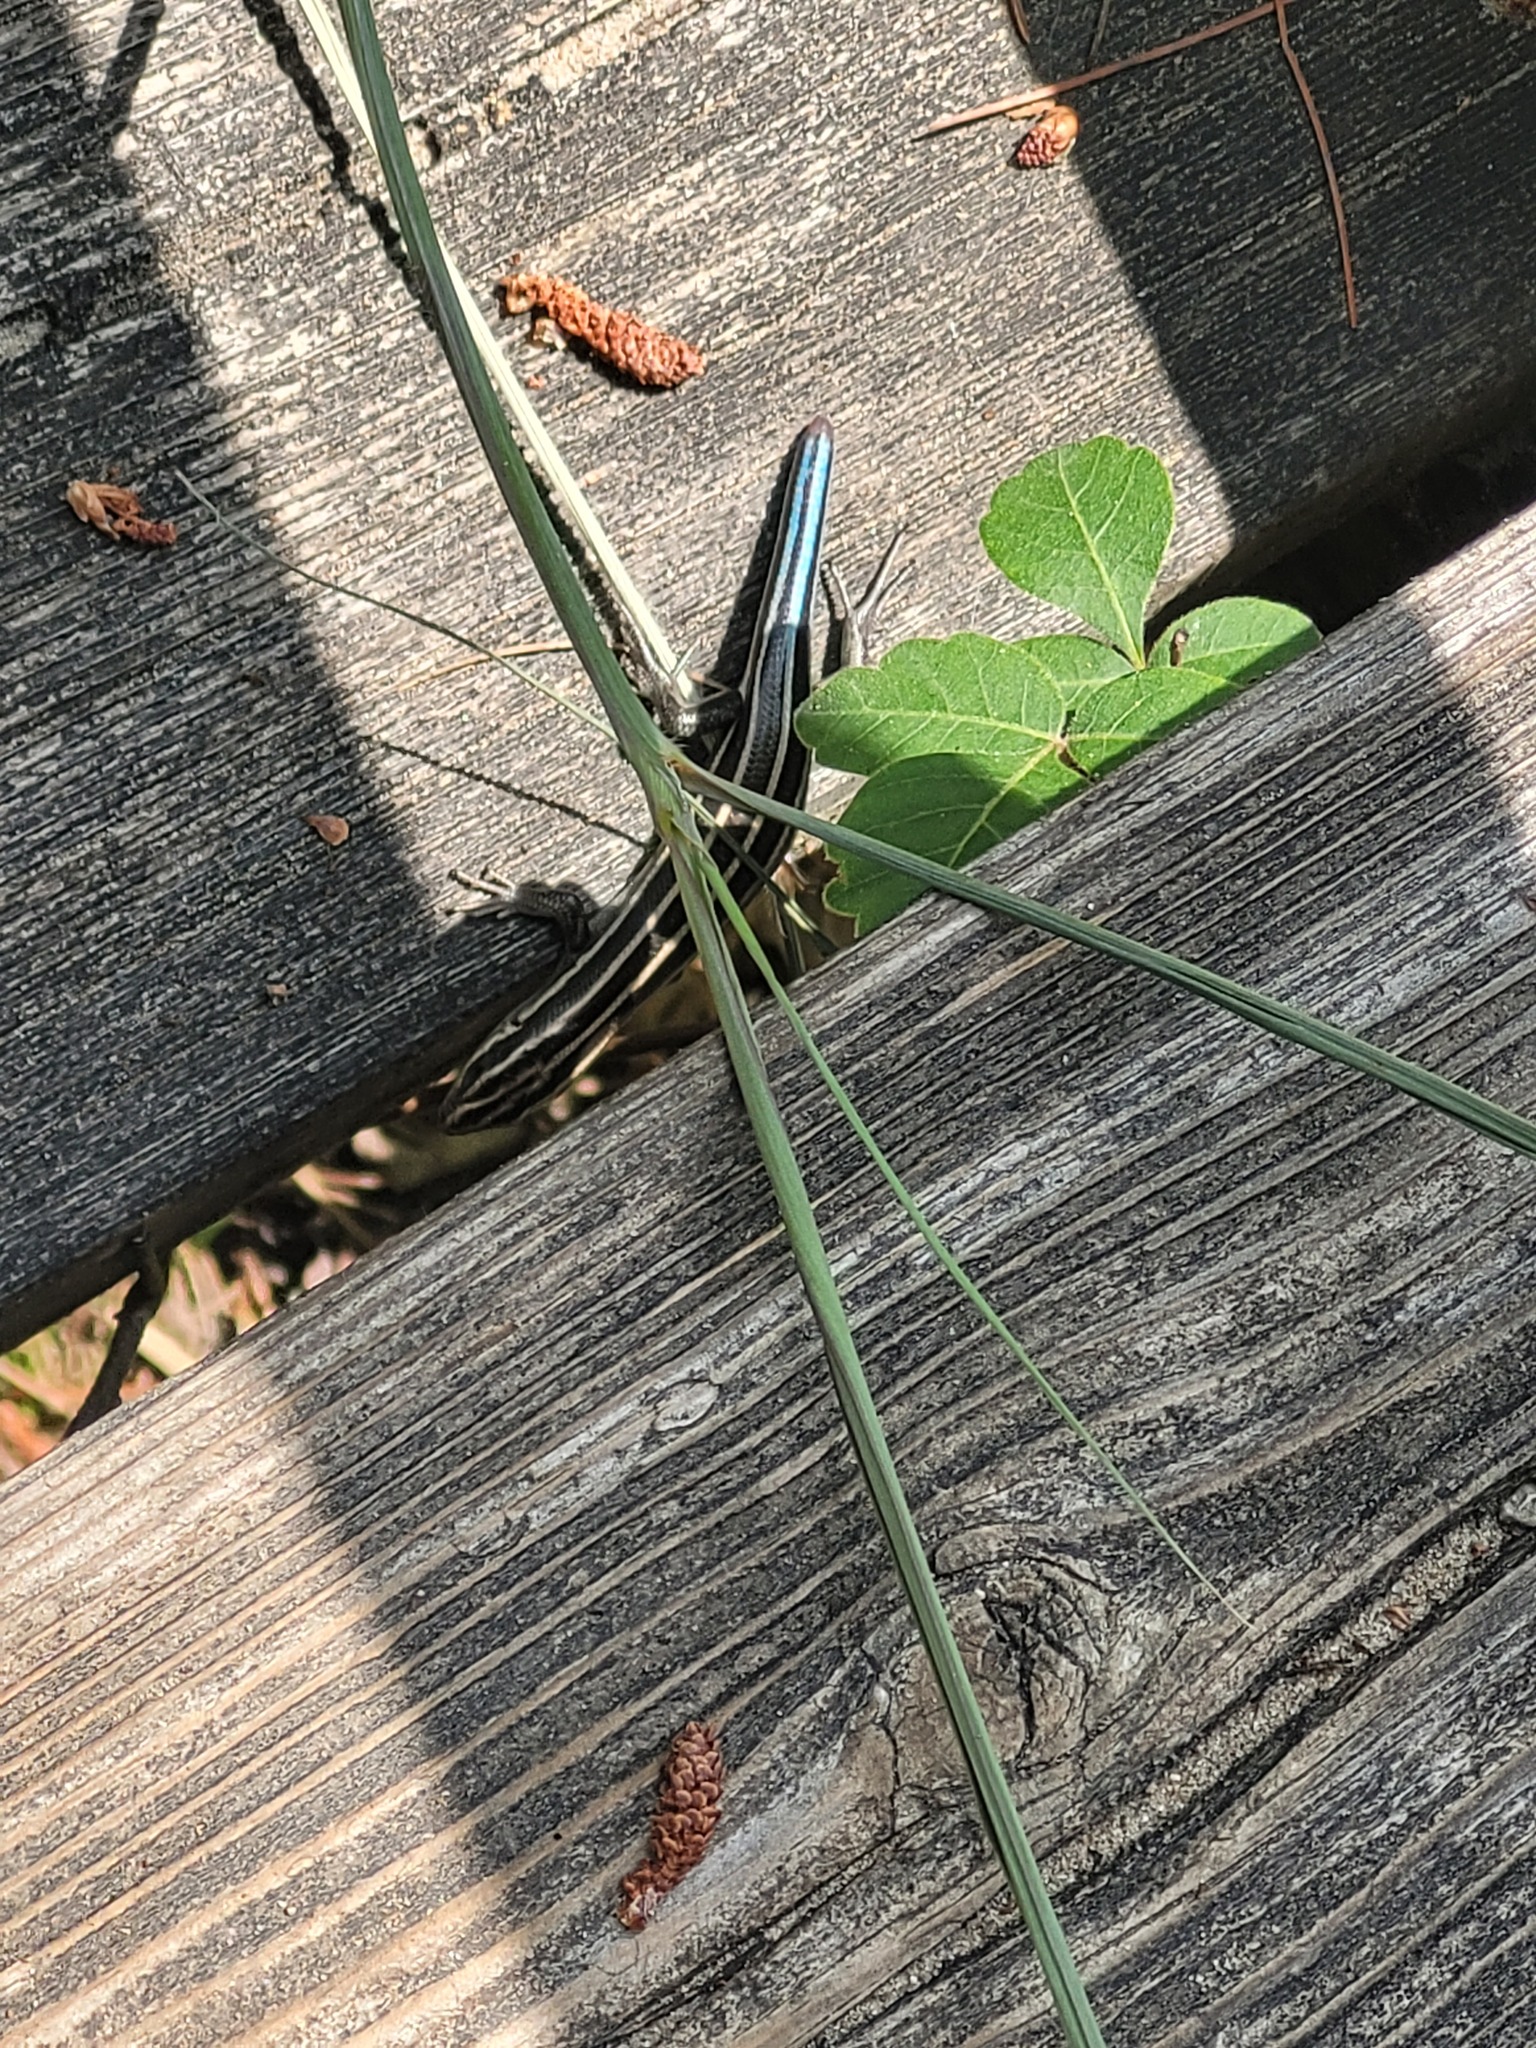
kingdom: Animalia
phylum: Chordata
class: Squamata
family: Scincidae
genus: Plestiodon
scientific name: Plestiodon fasciatus
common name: Five-lined skink
